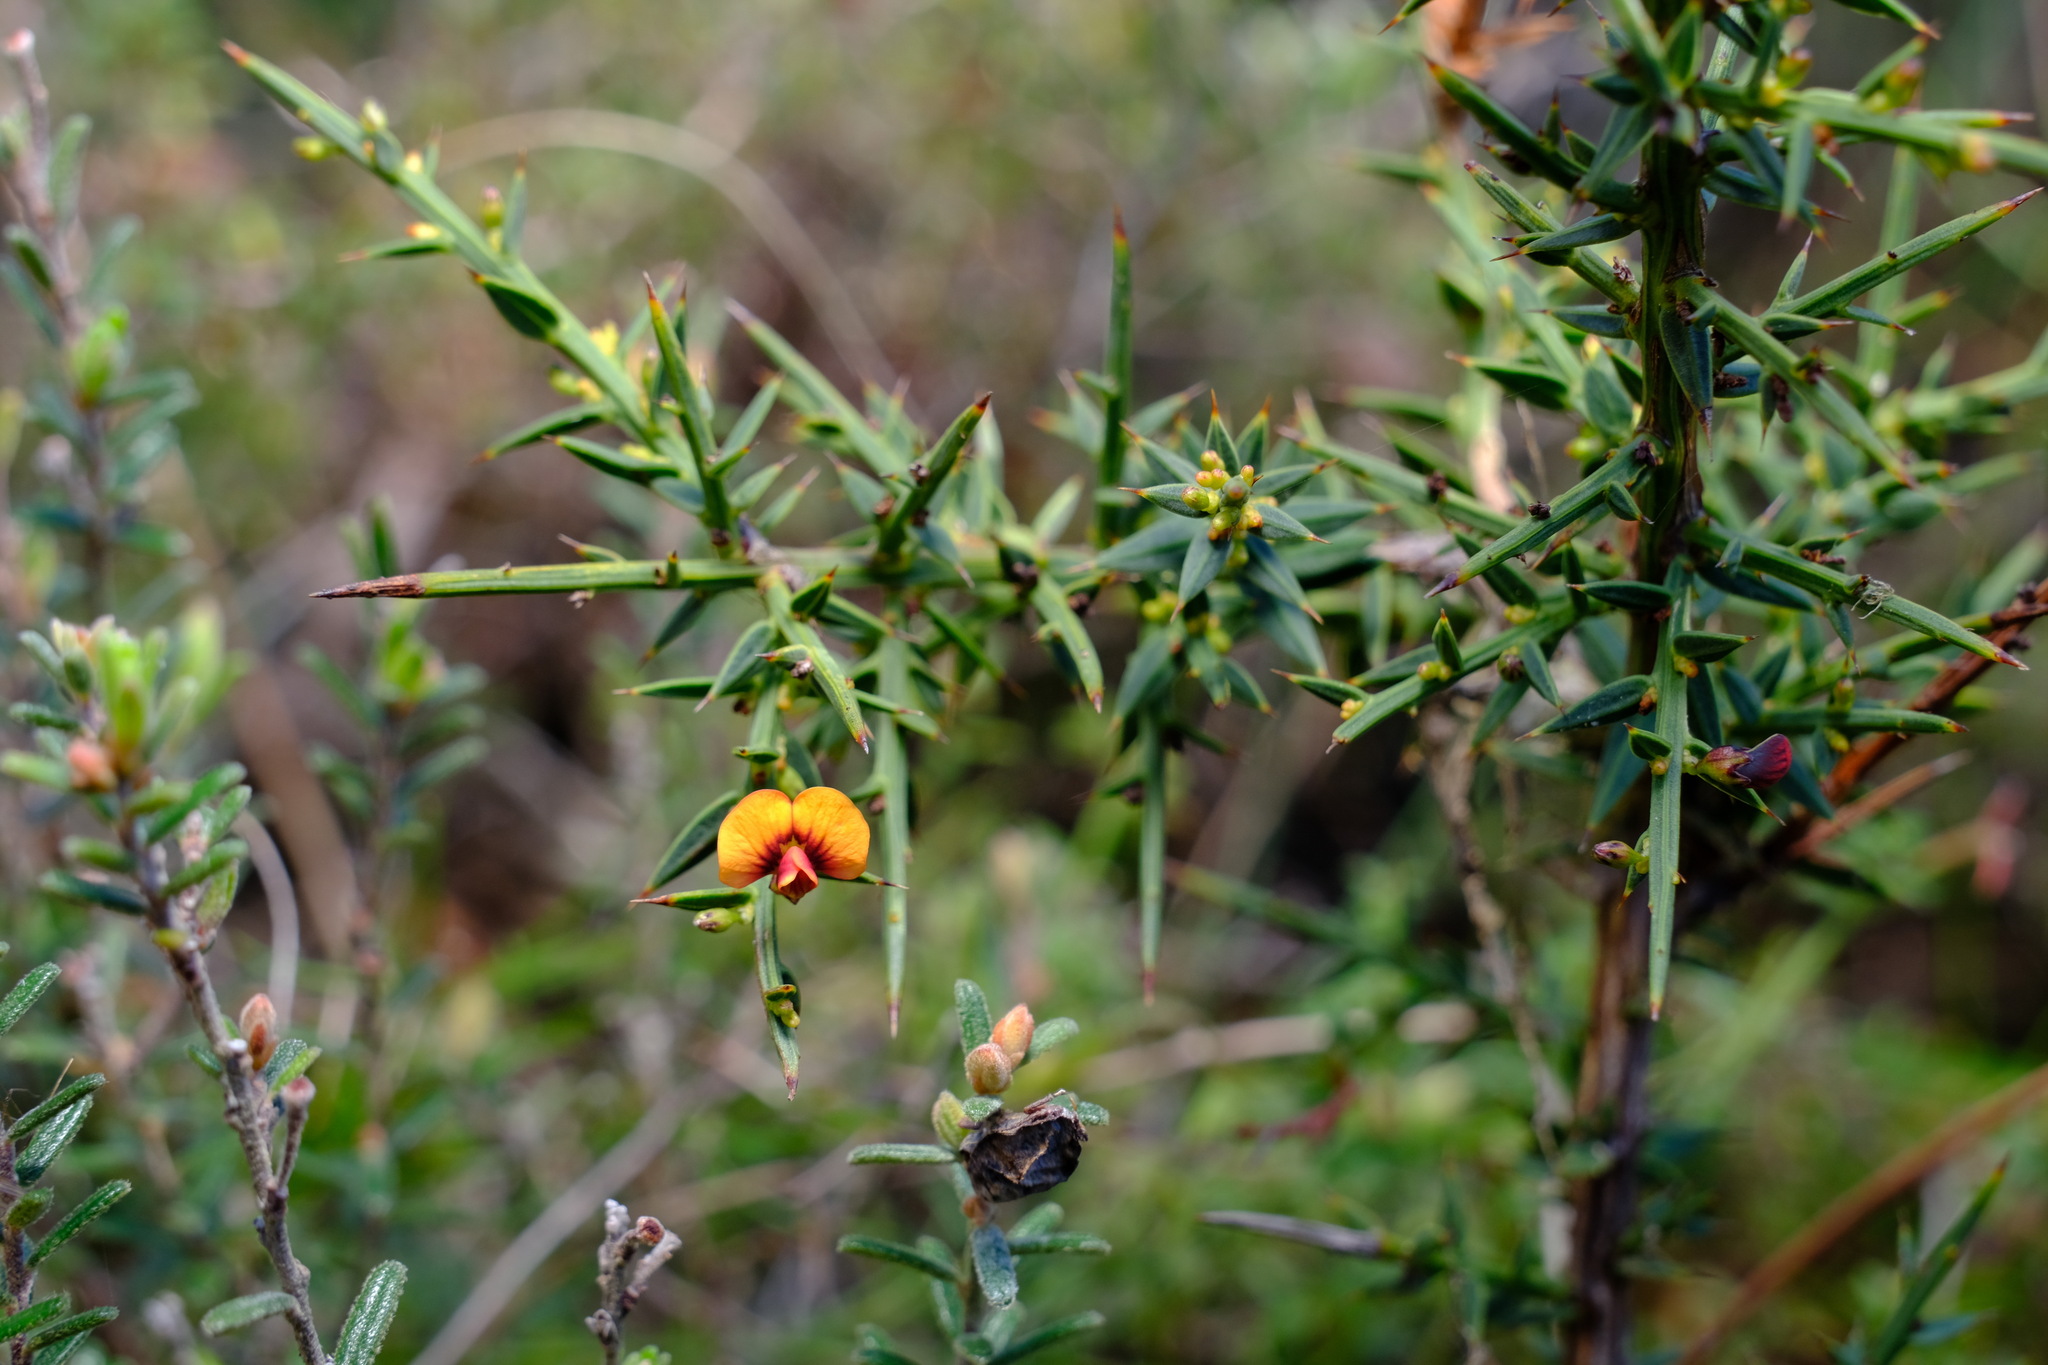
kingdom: Plantae
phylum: Tracheophyta
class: Magnoliopsida
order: Fabales
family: Fabaceae
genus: Daviesia
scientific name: Daviesia ulicifolia
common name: Gorse bitter-pea
